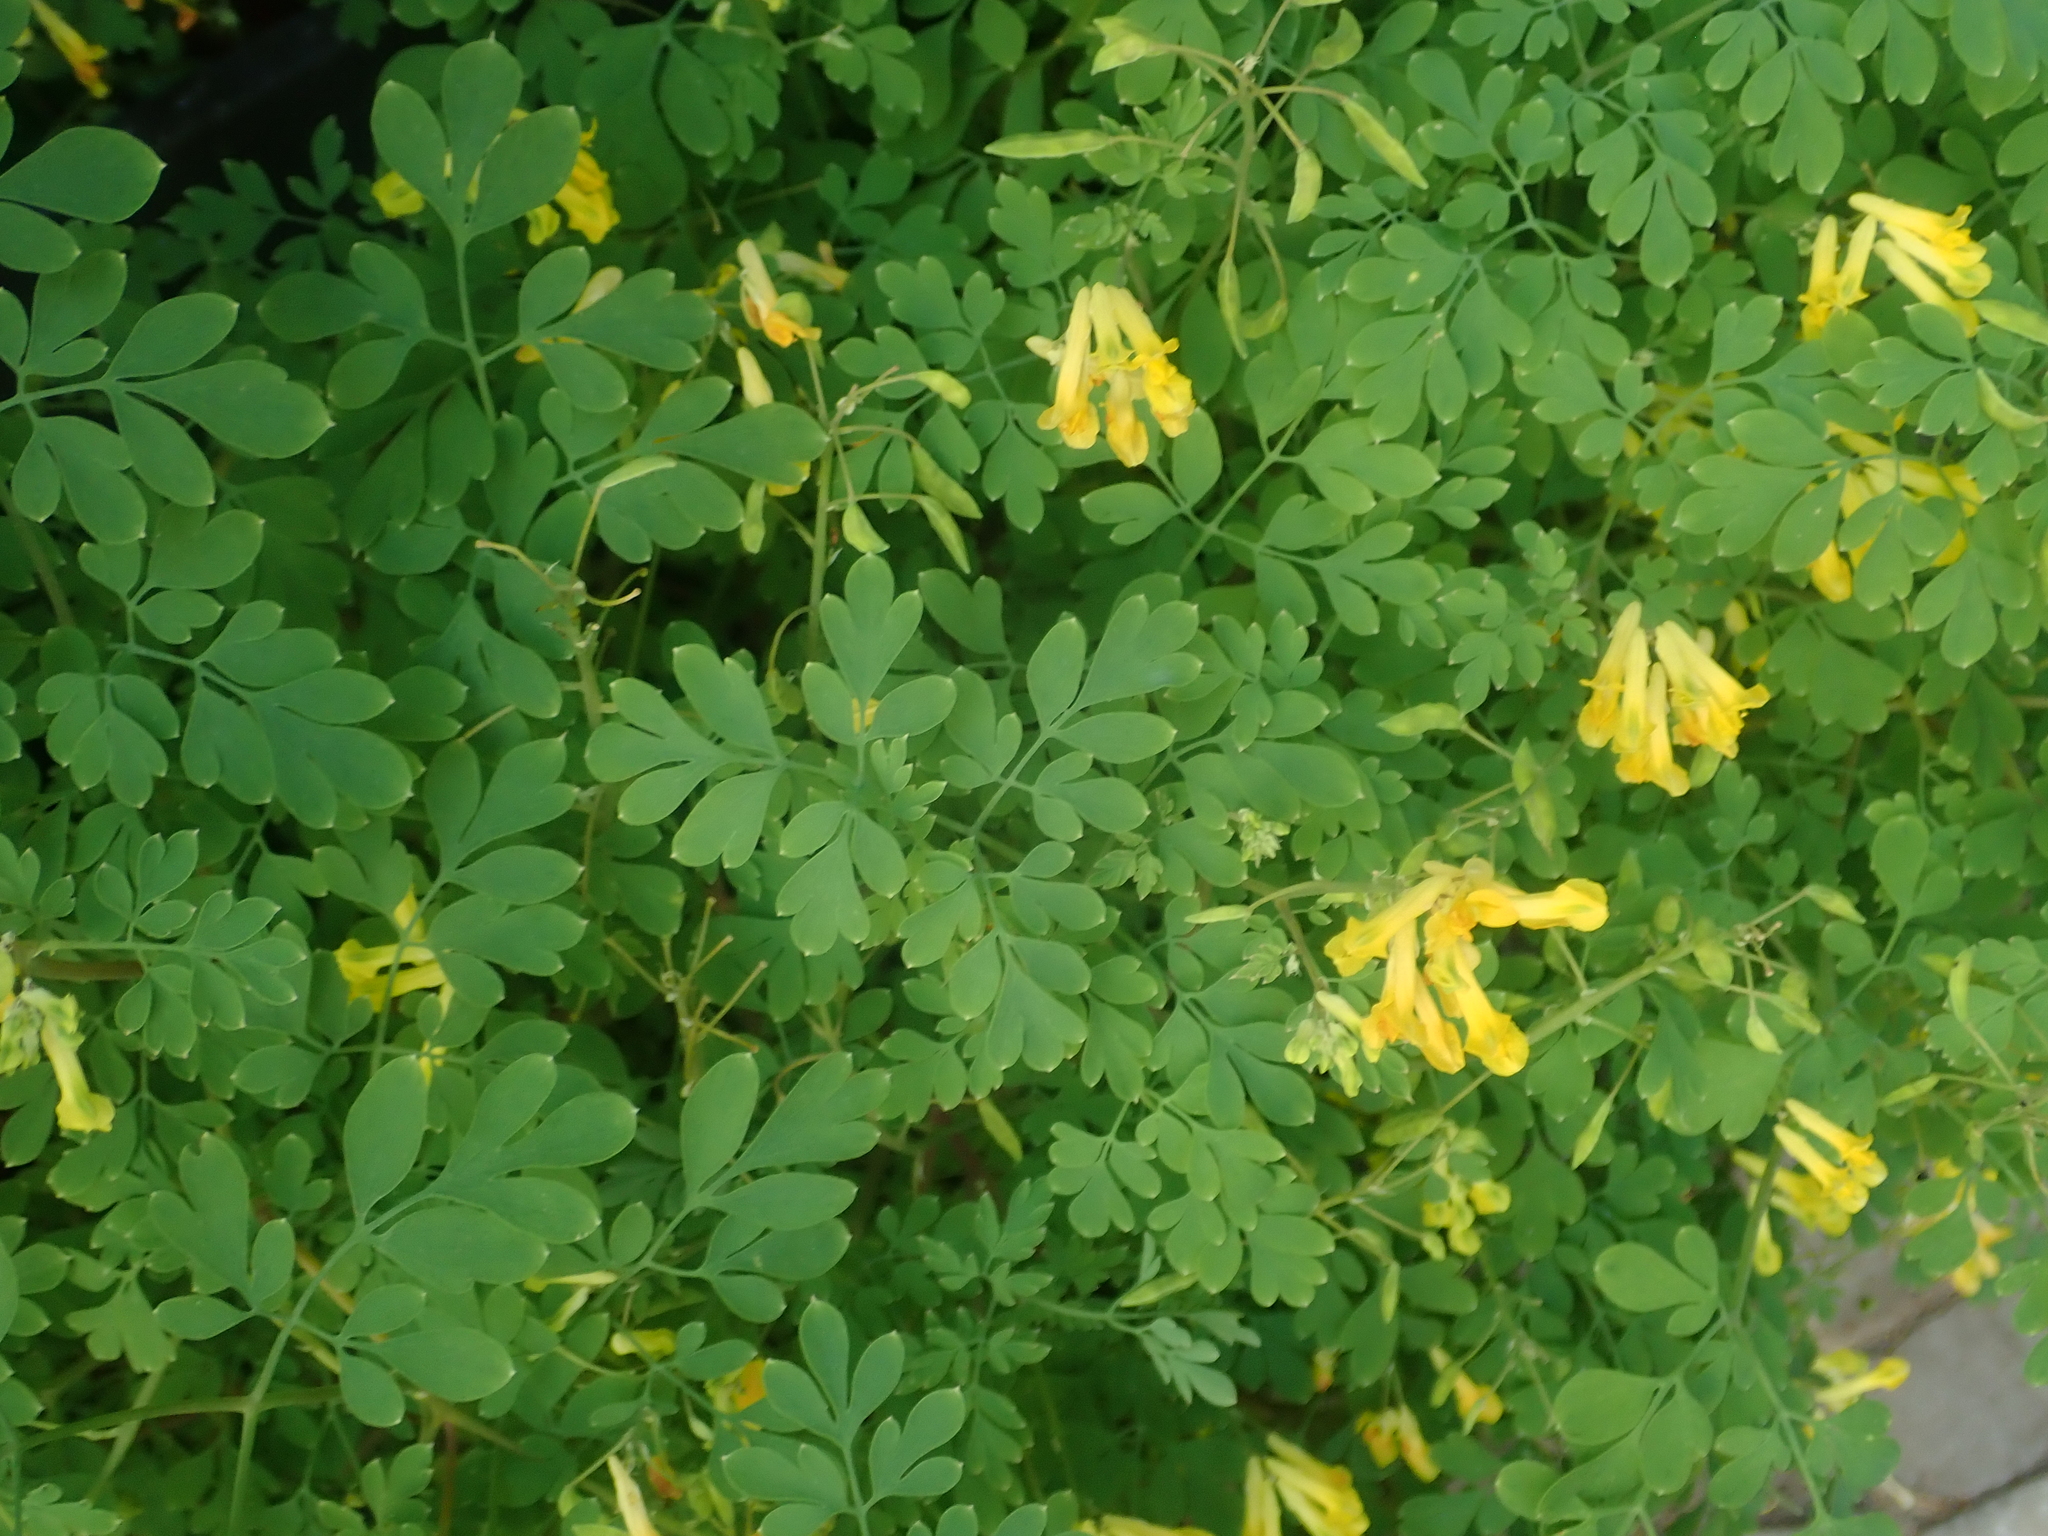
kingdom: Plantae
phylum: Tracheophyta
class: Magnoliopsida
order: Ranunculales
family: Papaveraceae
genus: Pseudofumaria
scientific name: Pseudofumaria lutea
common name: Yellow corydalis
